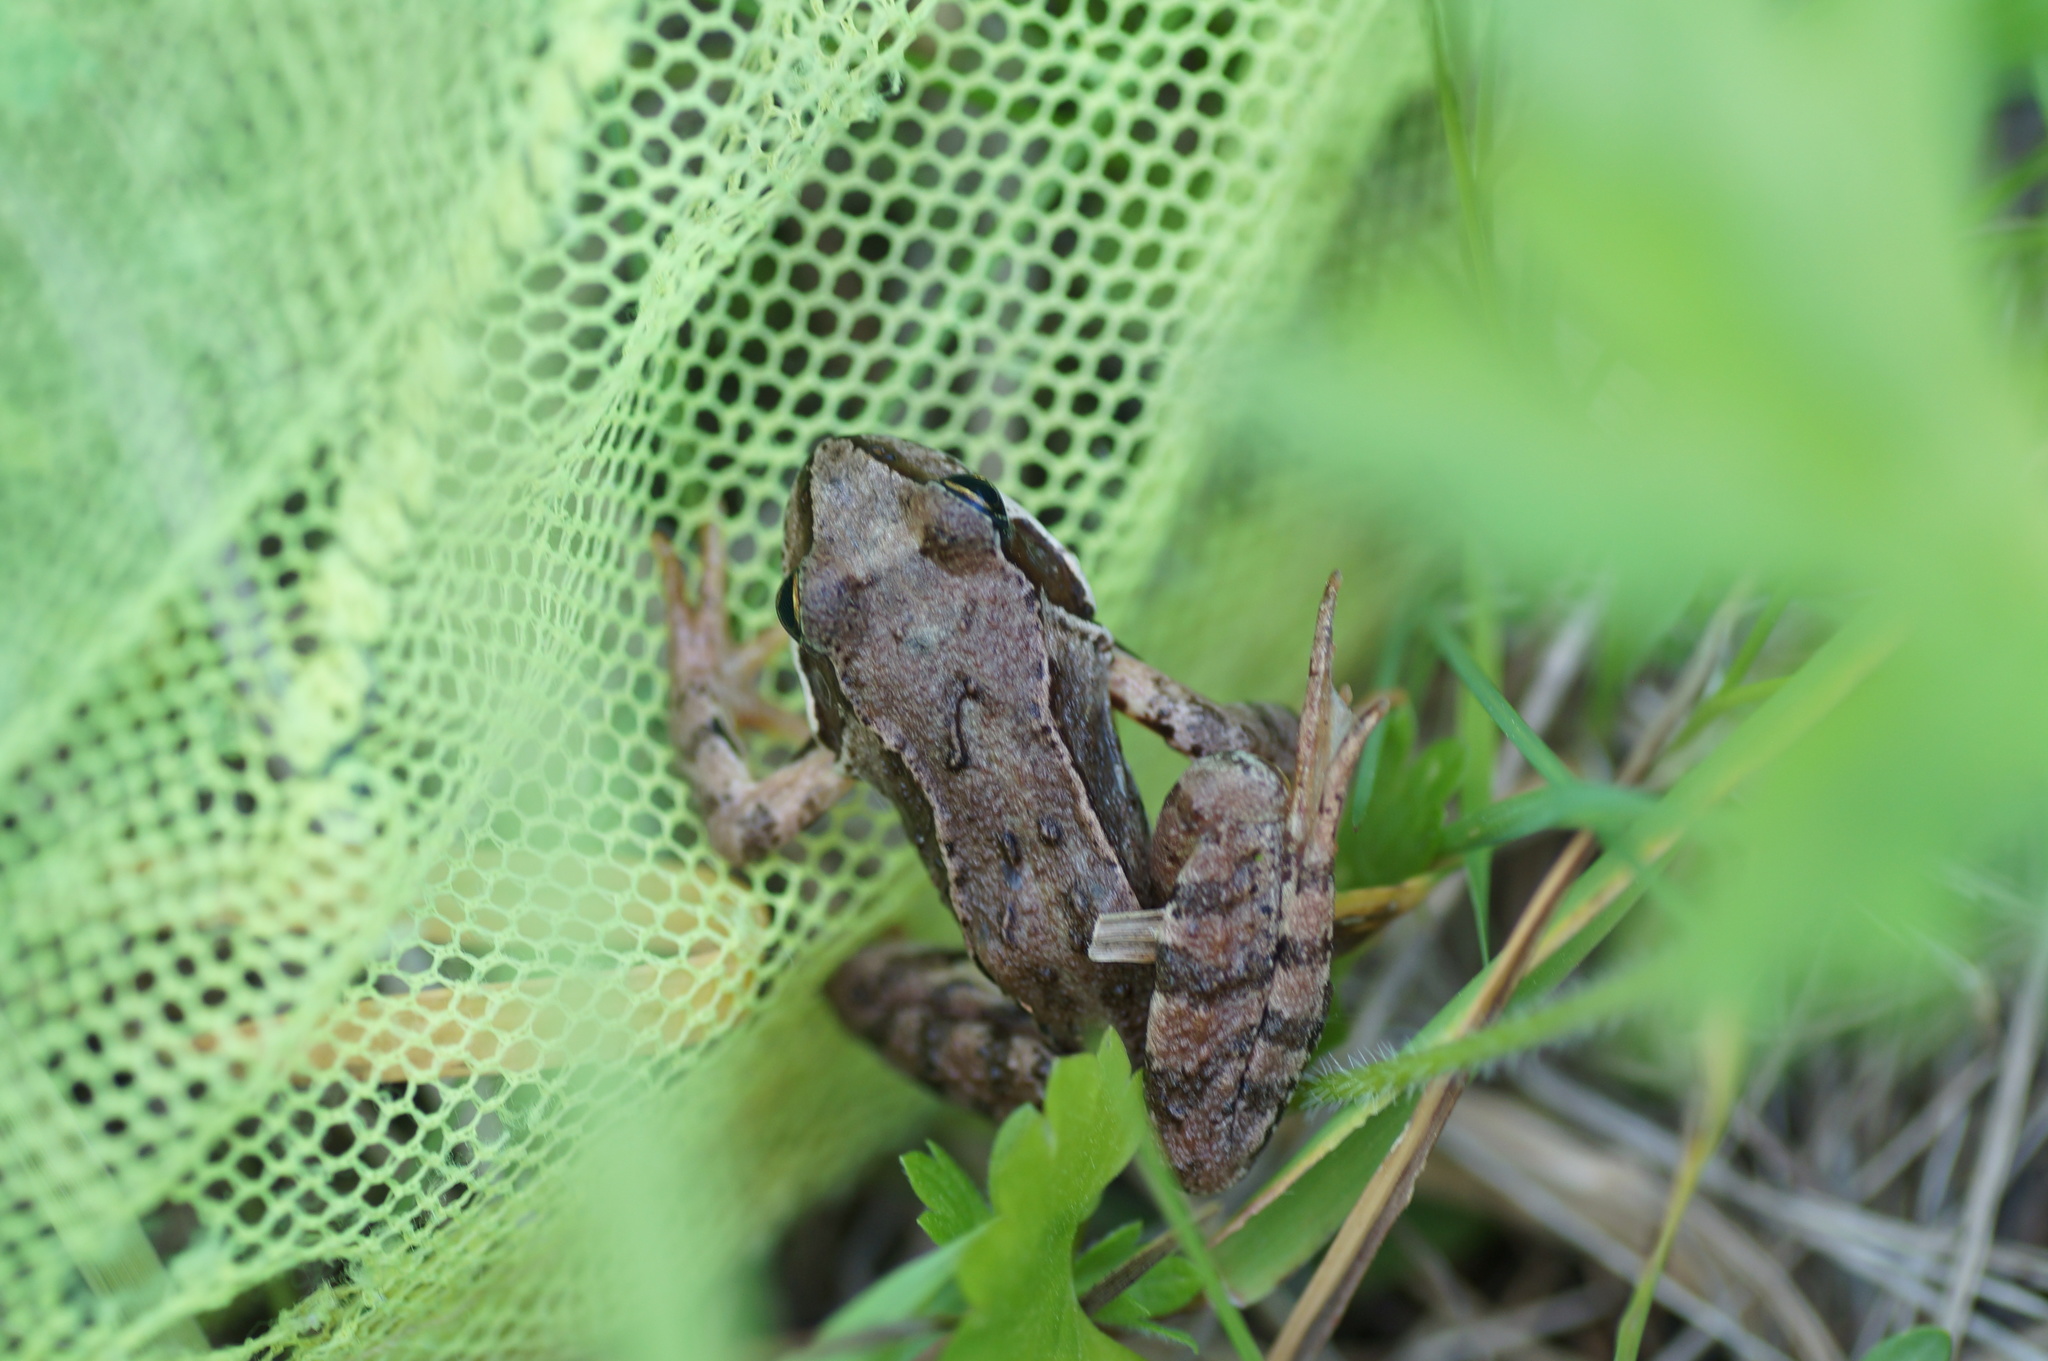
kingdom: Animalia
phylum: Chordata
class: Amphibia
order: Anura
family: Ranidae
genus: Rana
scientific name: Rana temporaria
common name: Common frog
